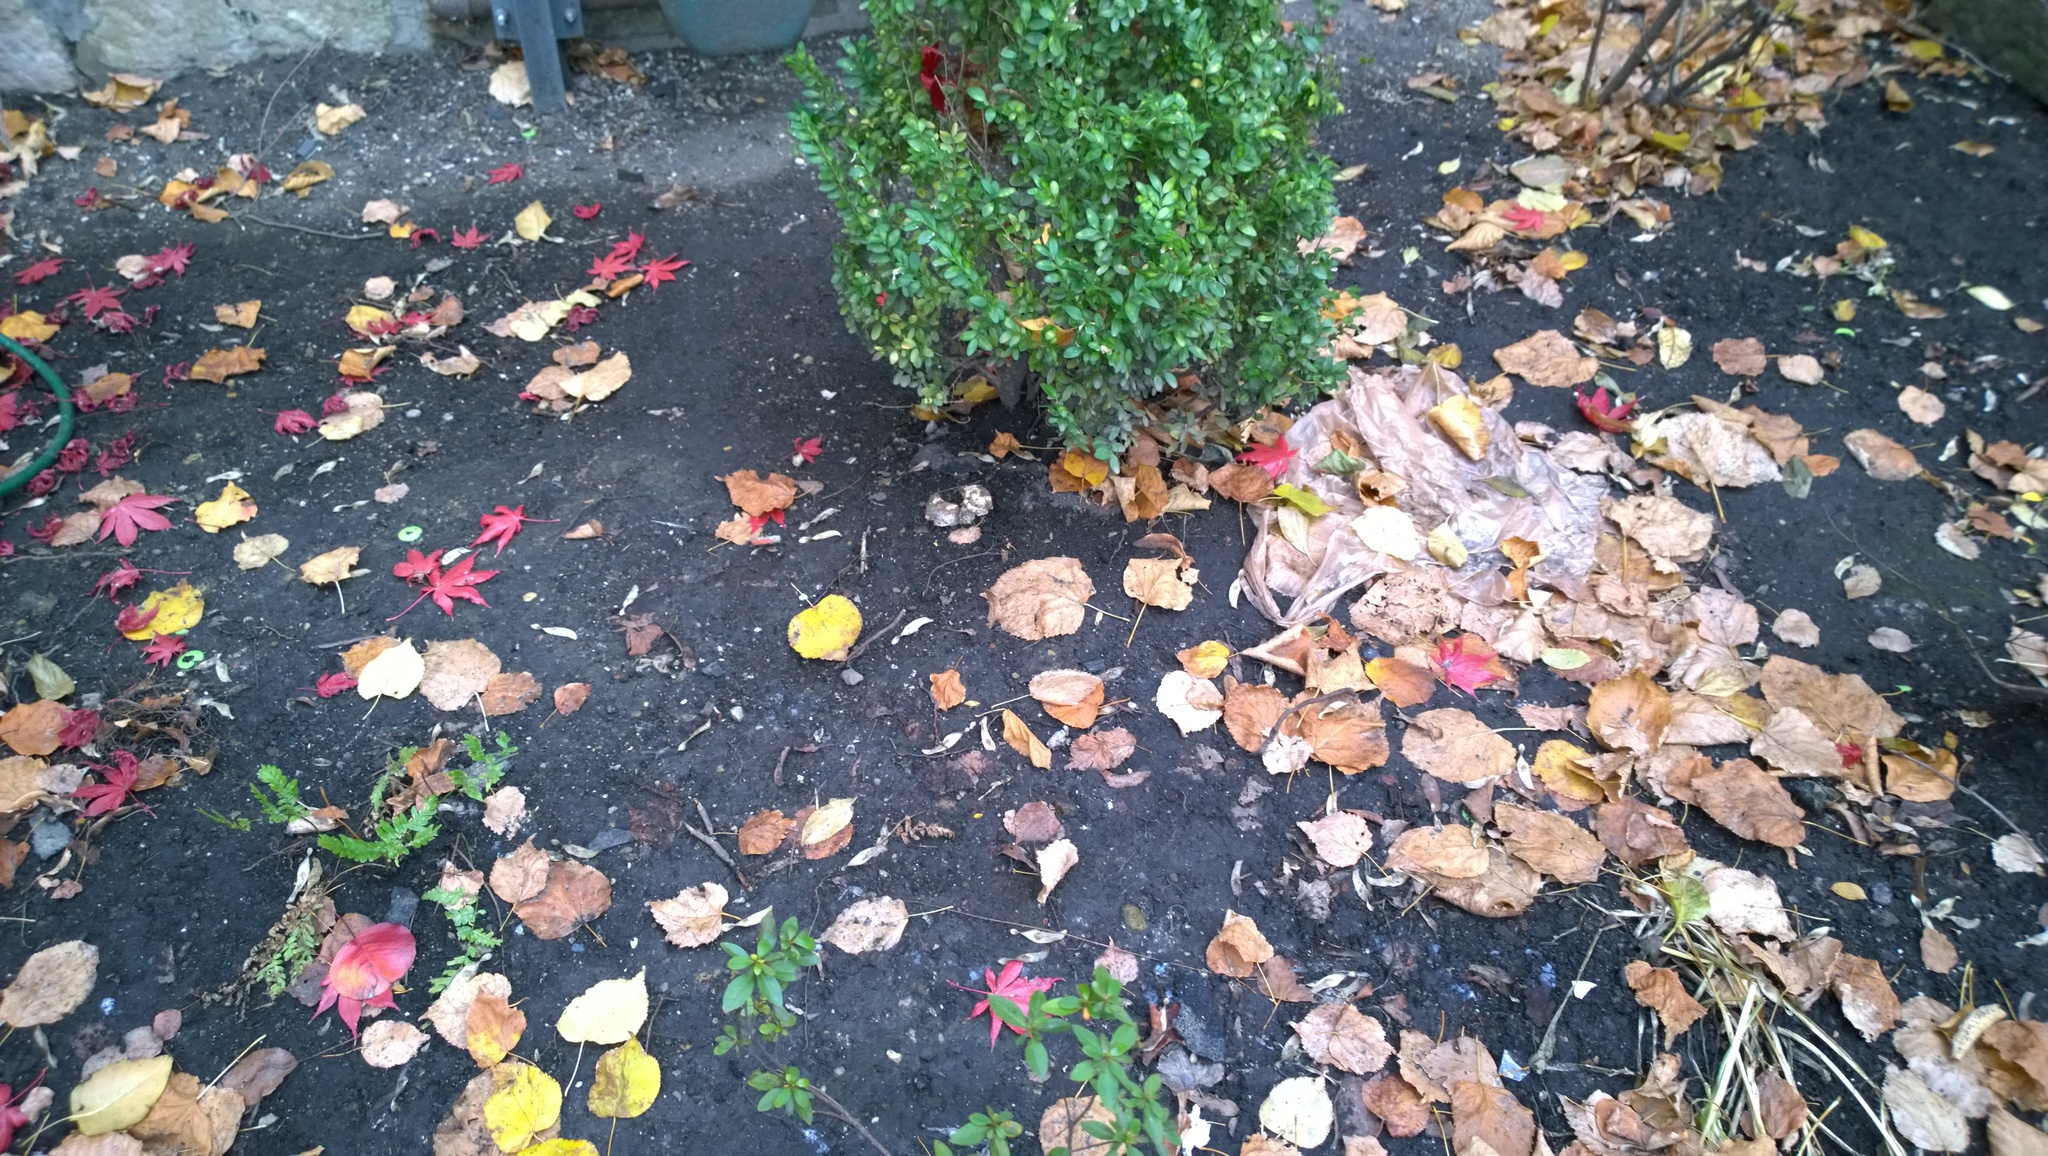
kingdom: Fungi
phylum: Basidiomycota
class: Agaricomycetes
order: Agaricales
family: Hymenogastraceae
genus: Hebeloma
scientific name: Hebeloma crustuliniforme
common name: Poison pie
